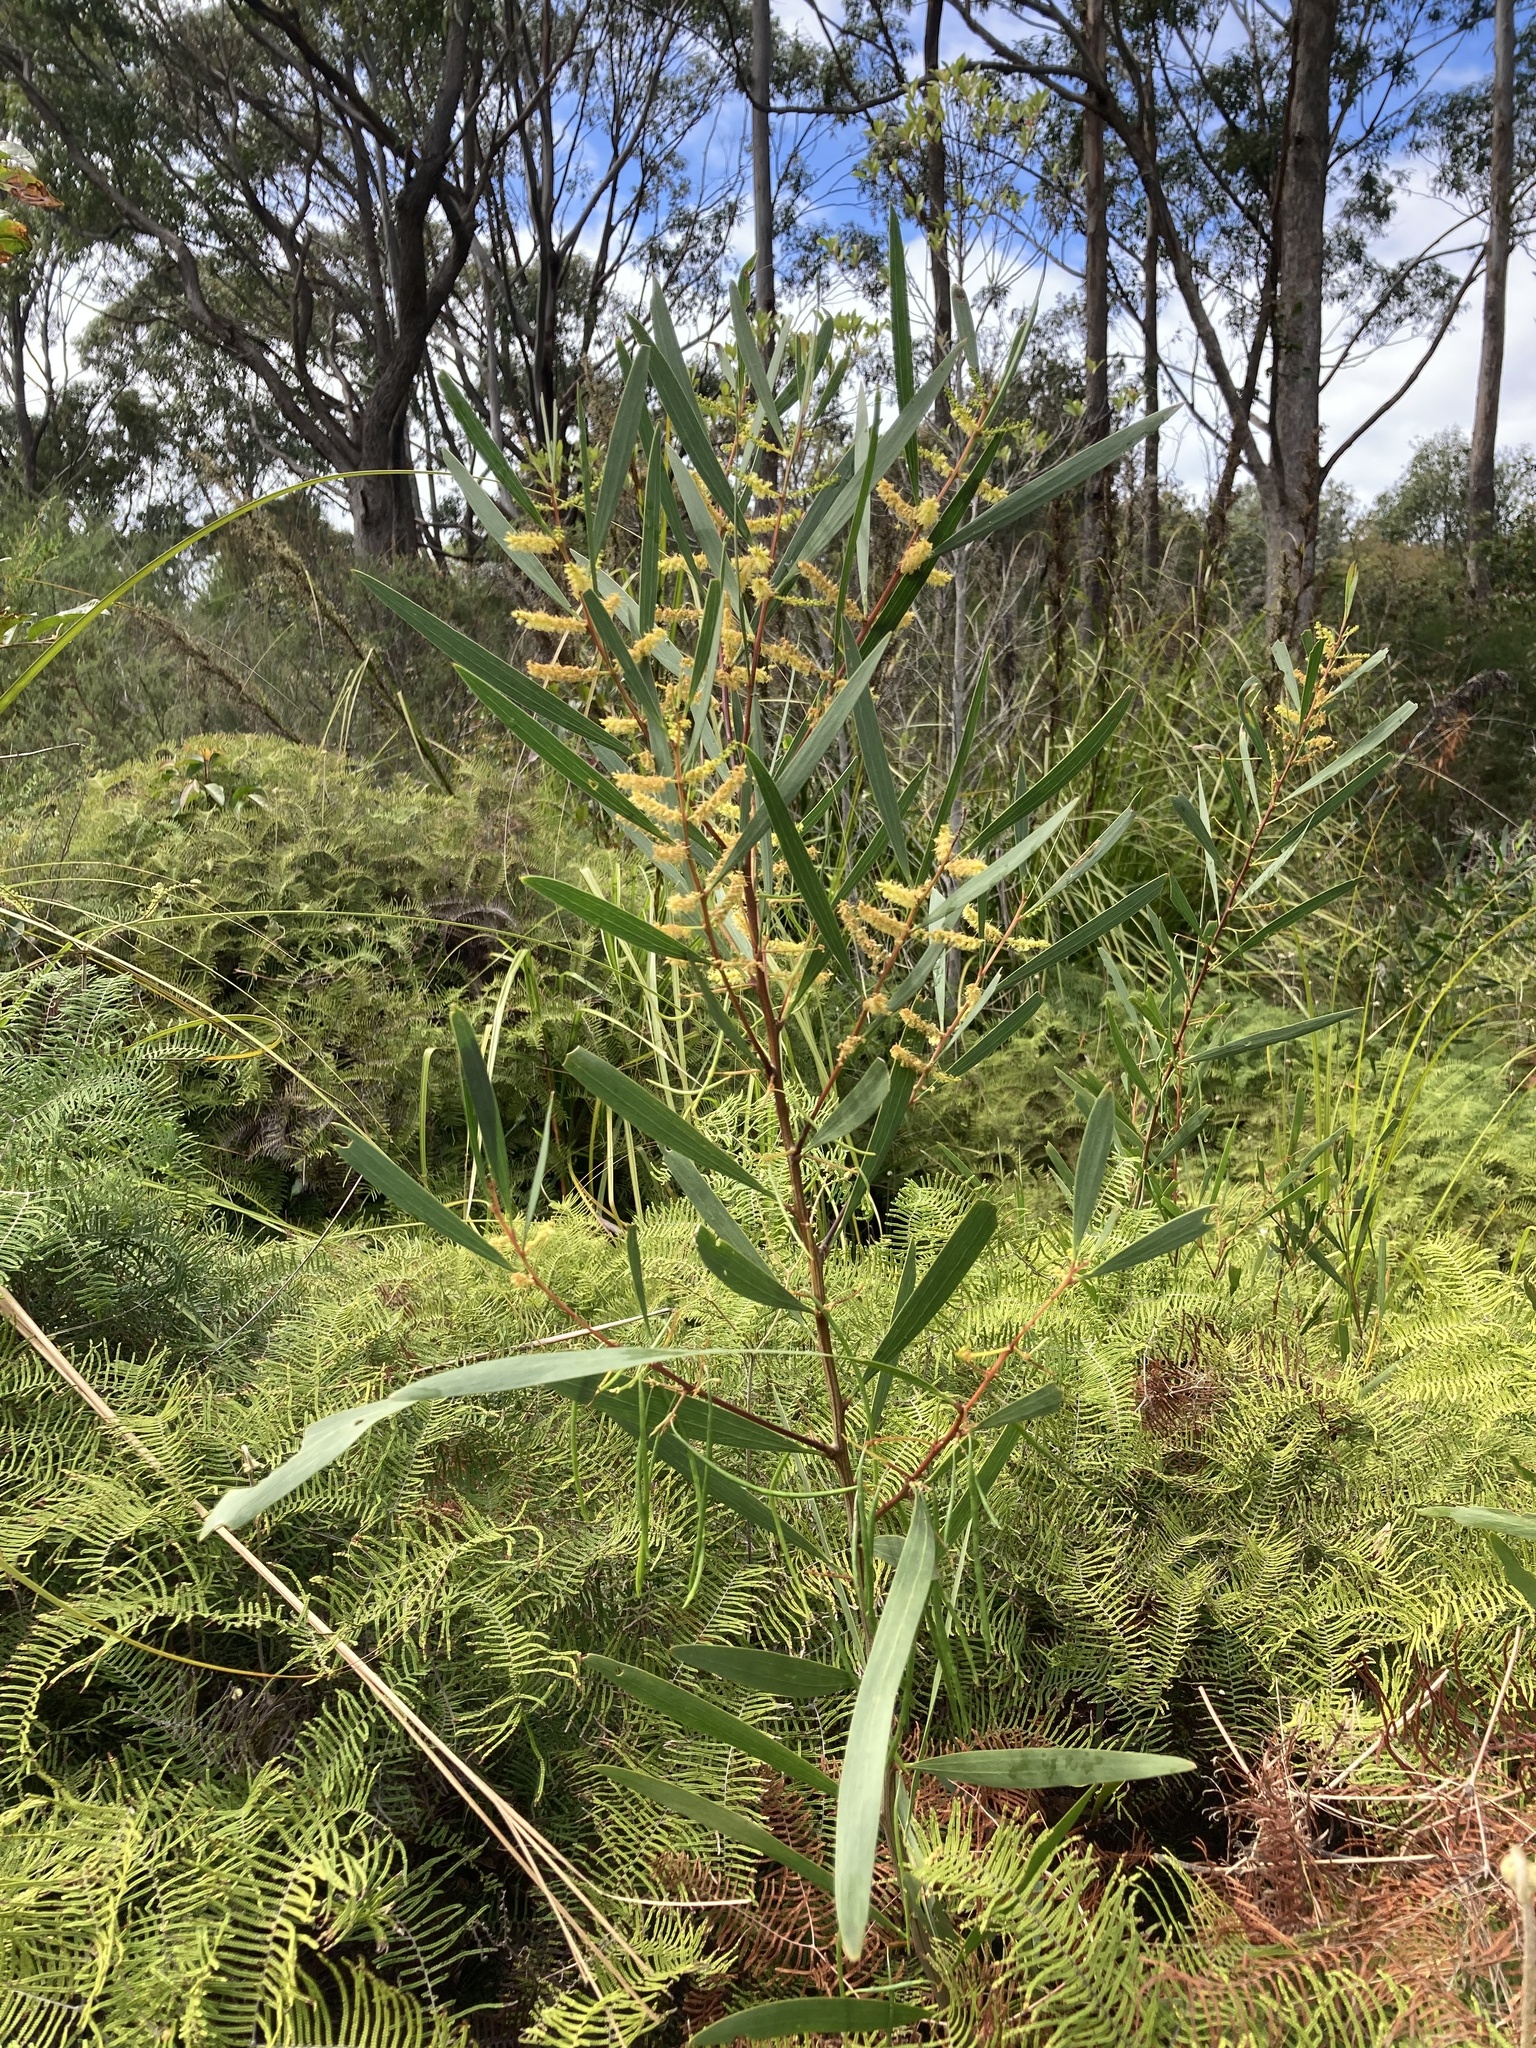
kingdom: Plantae
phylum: Tracheophyta
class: Magnoliopsida
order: Fabales
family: Fabaceae
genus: Acacia
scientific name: Acacia longifolia
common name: Sydney golden wattle
